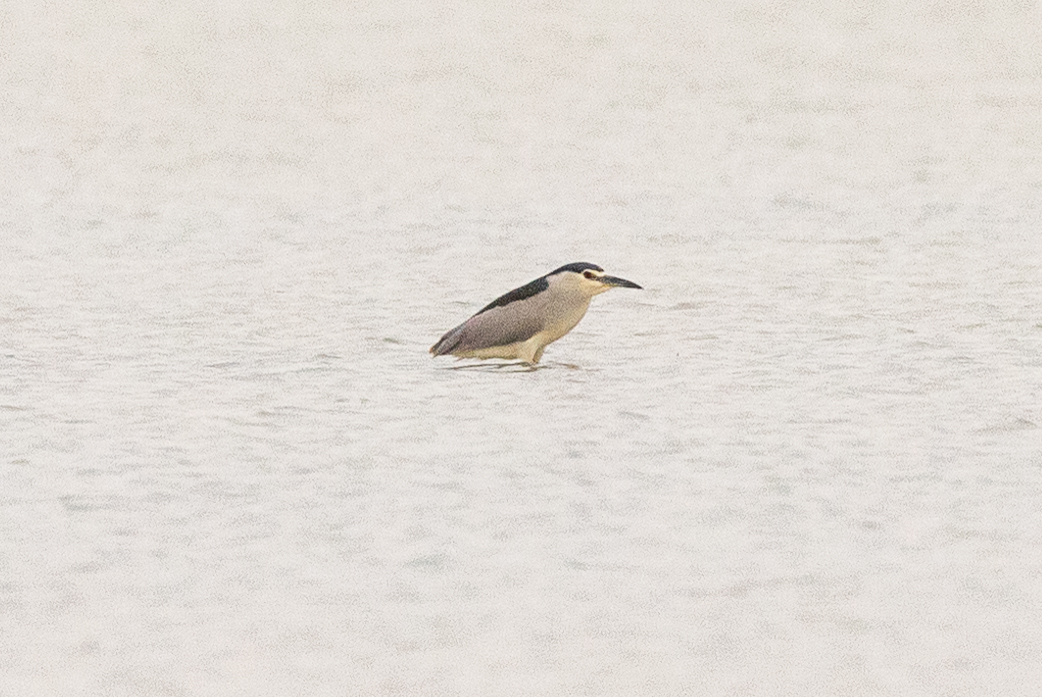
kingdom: Animalia
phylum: Chordata
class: Aves
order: Pelecaniformes
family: Ardeidae
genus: Nycticorax
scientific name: Nycticorax nycticorax
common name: Black-crowned night heron
